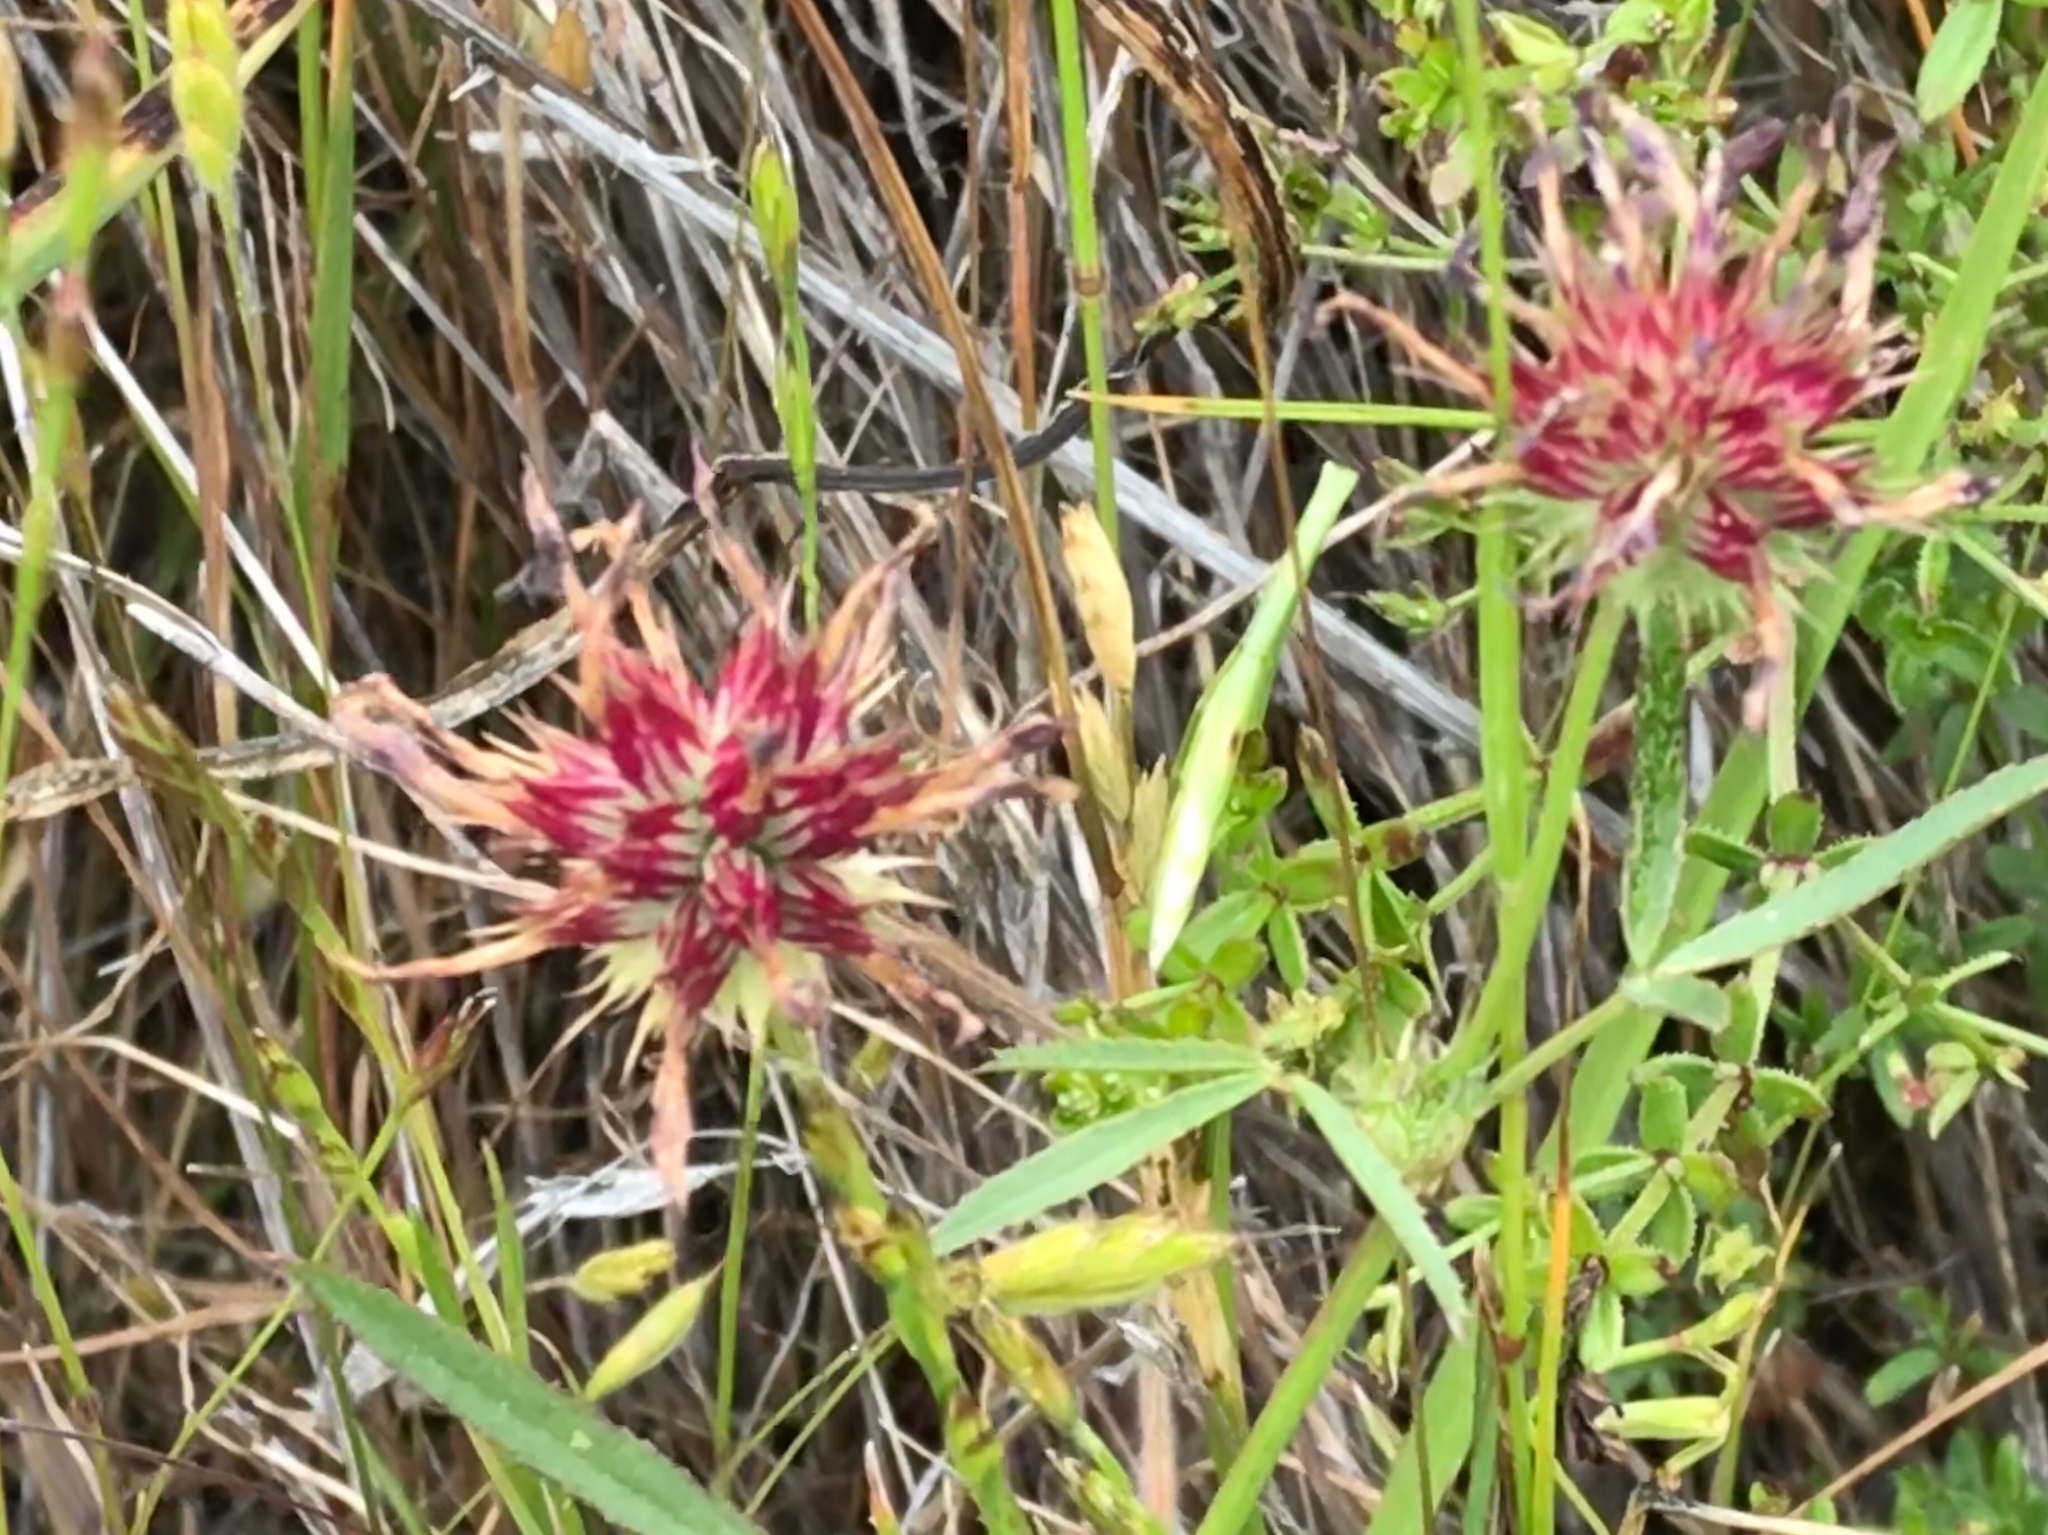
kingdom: Plantae
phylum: Tracheophyta
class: Magnoliopsida
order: Fabales
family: Fabaceae
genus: Trifolium
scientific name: Trifolium willdenovii
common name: Tomcat clover
